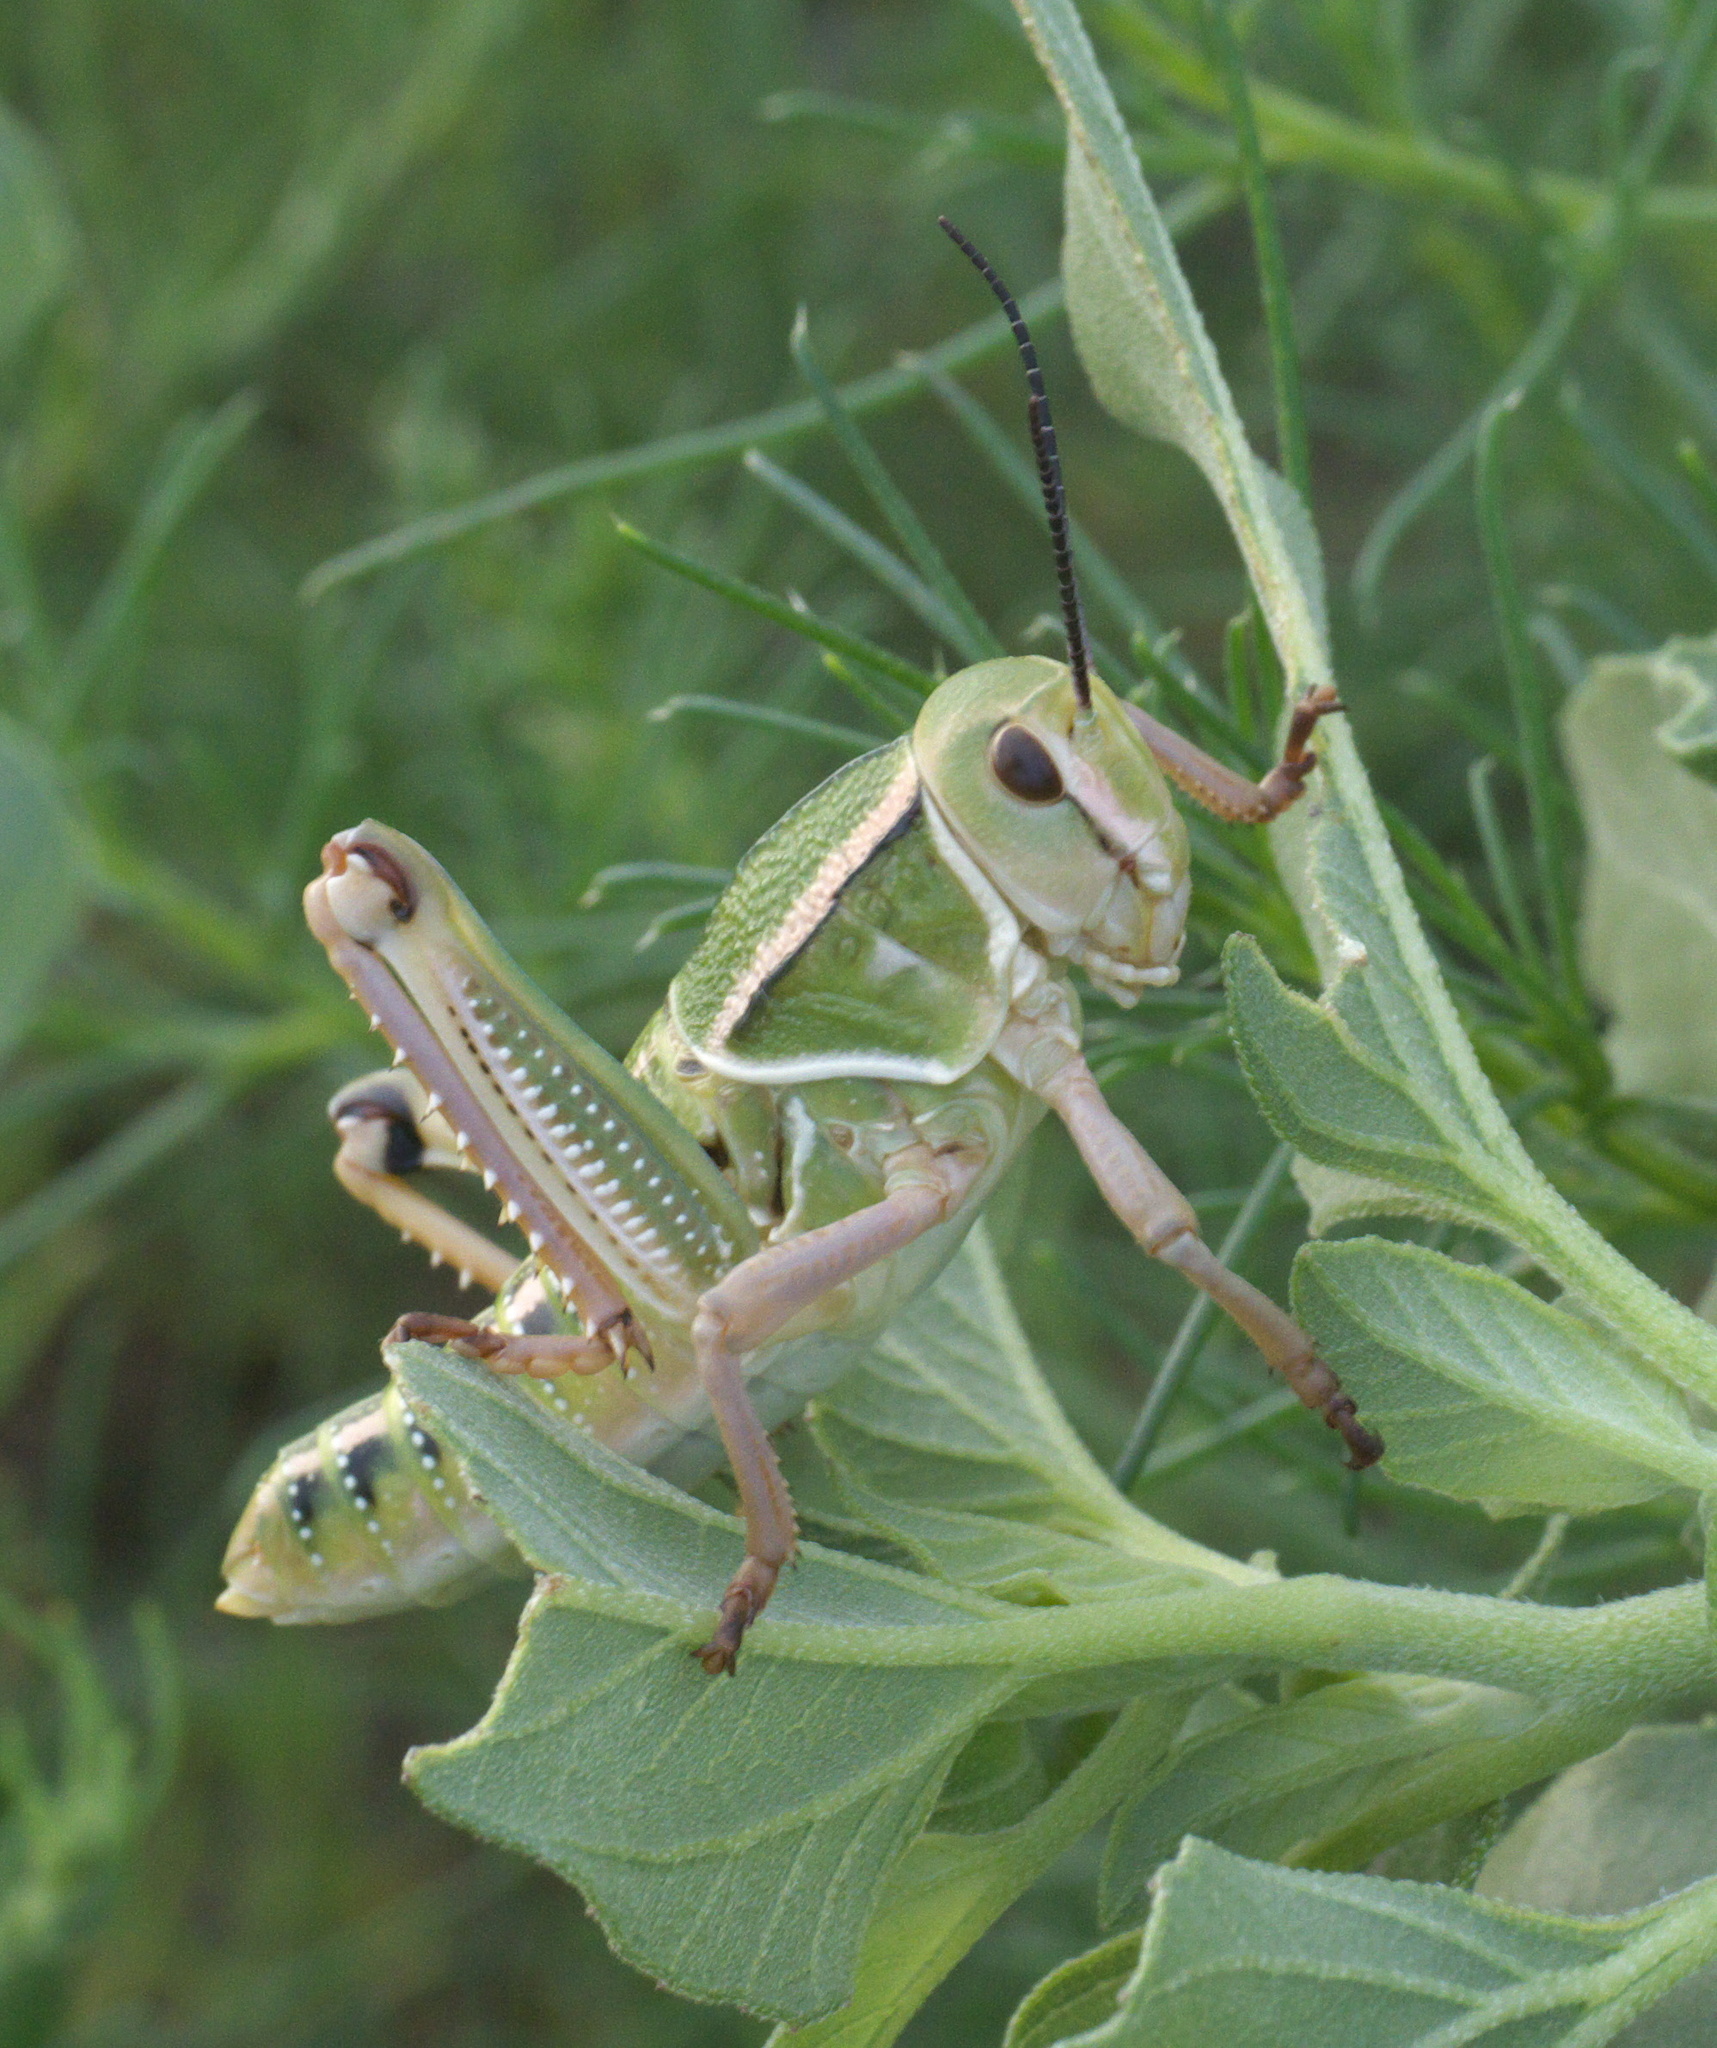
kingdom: Animalia
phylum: Arthropoda
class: Insecta
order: Orthoptera
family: Romaleidae
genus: Brachystola
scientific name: Brachystola magna
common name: Plains lubber grasshopper
